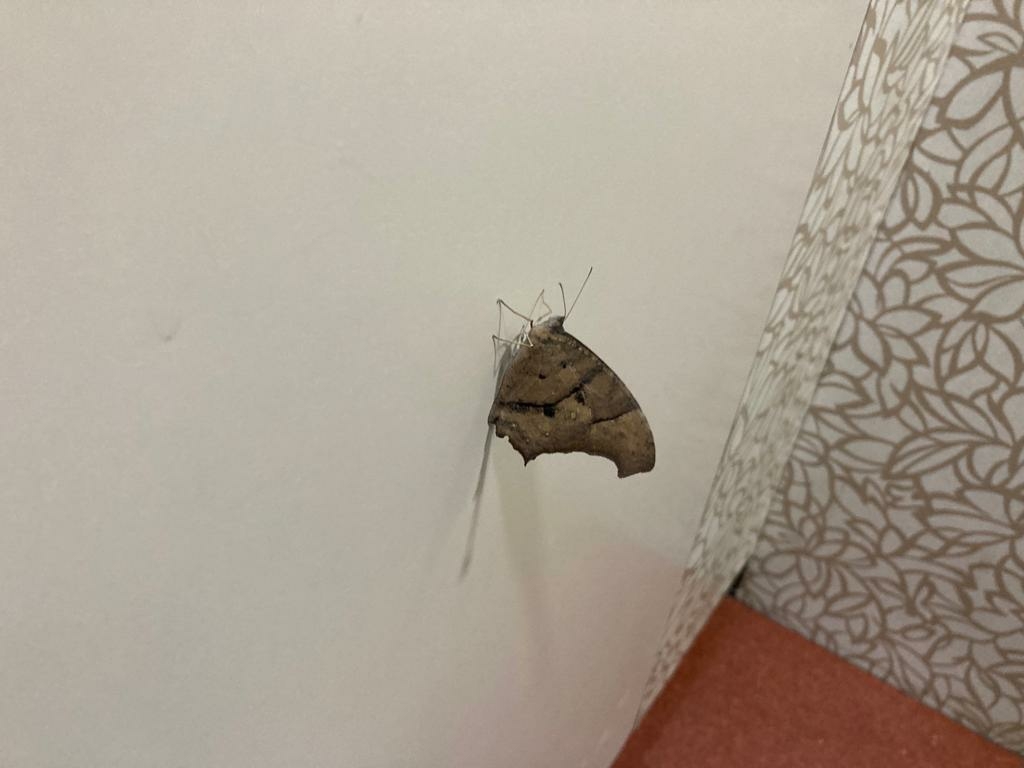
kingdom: Animalia
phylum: Arthropoda
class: Insecta
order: Lepidoptera
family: Nymphalidae
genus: Melanitis
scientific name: Melanitis leda
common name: Twilight brown
